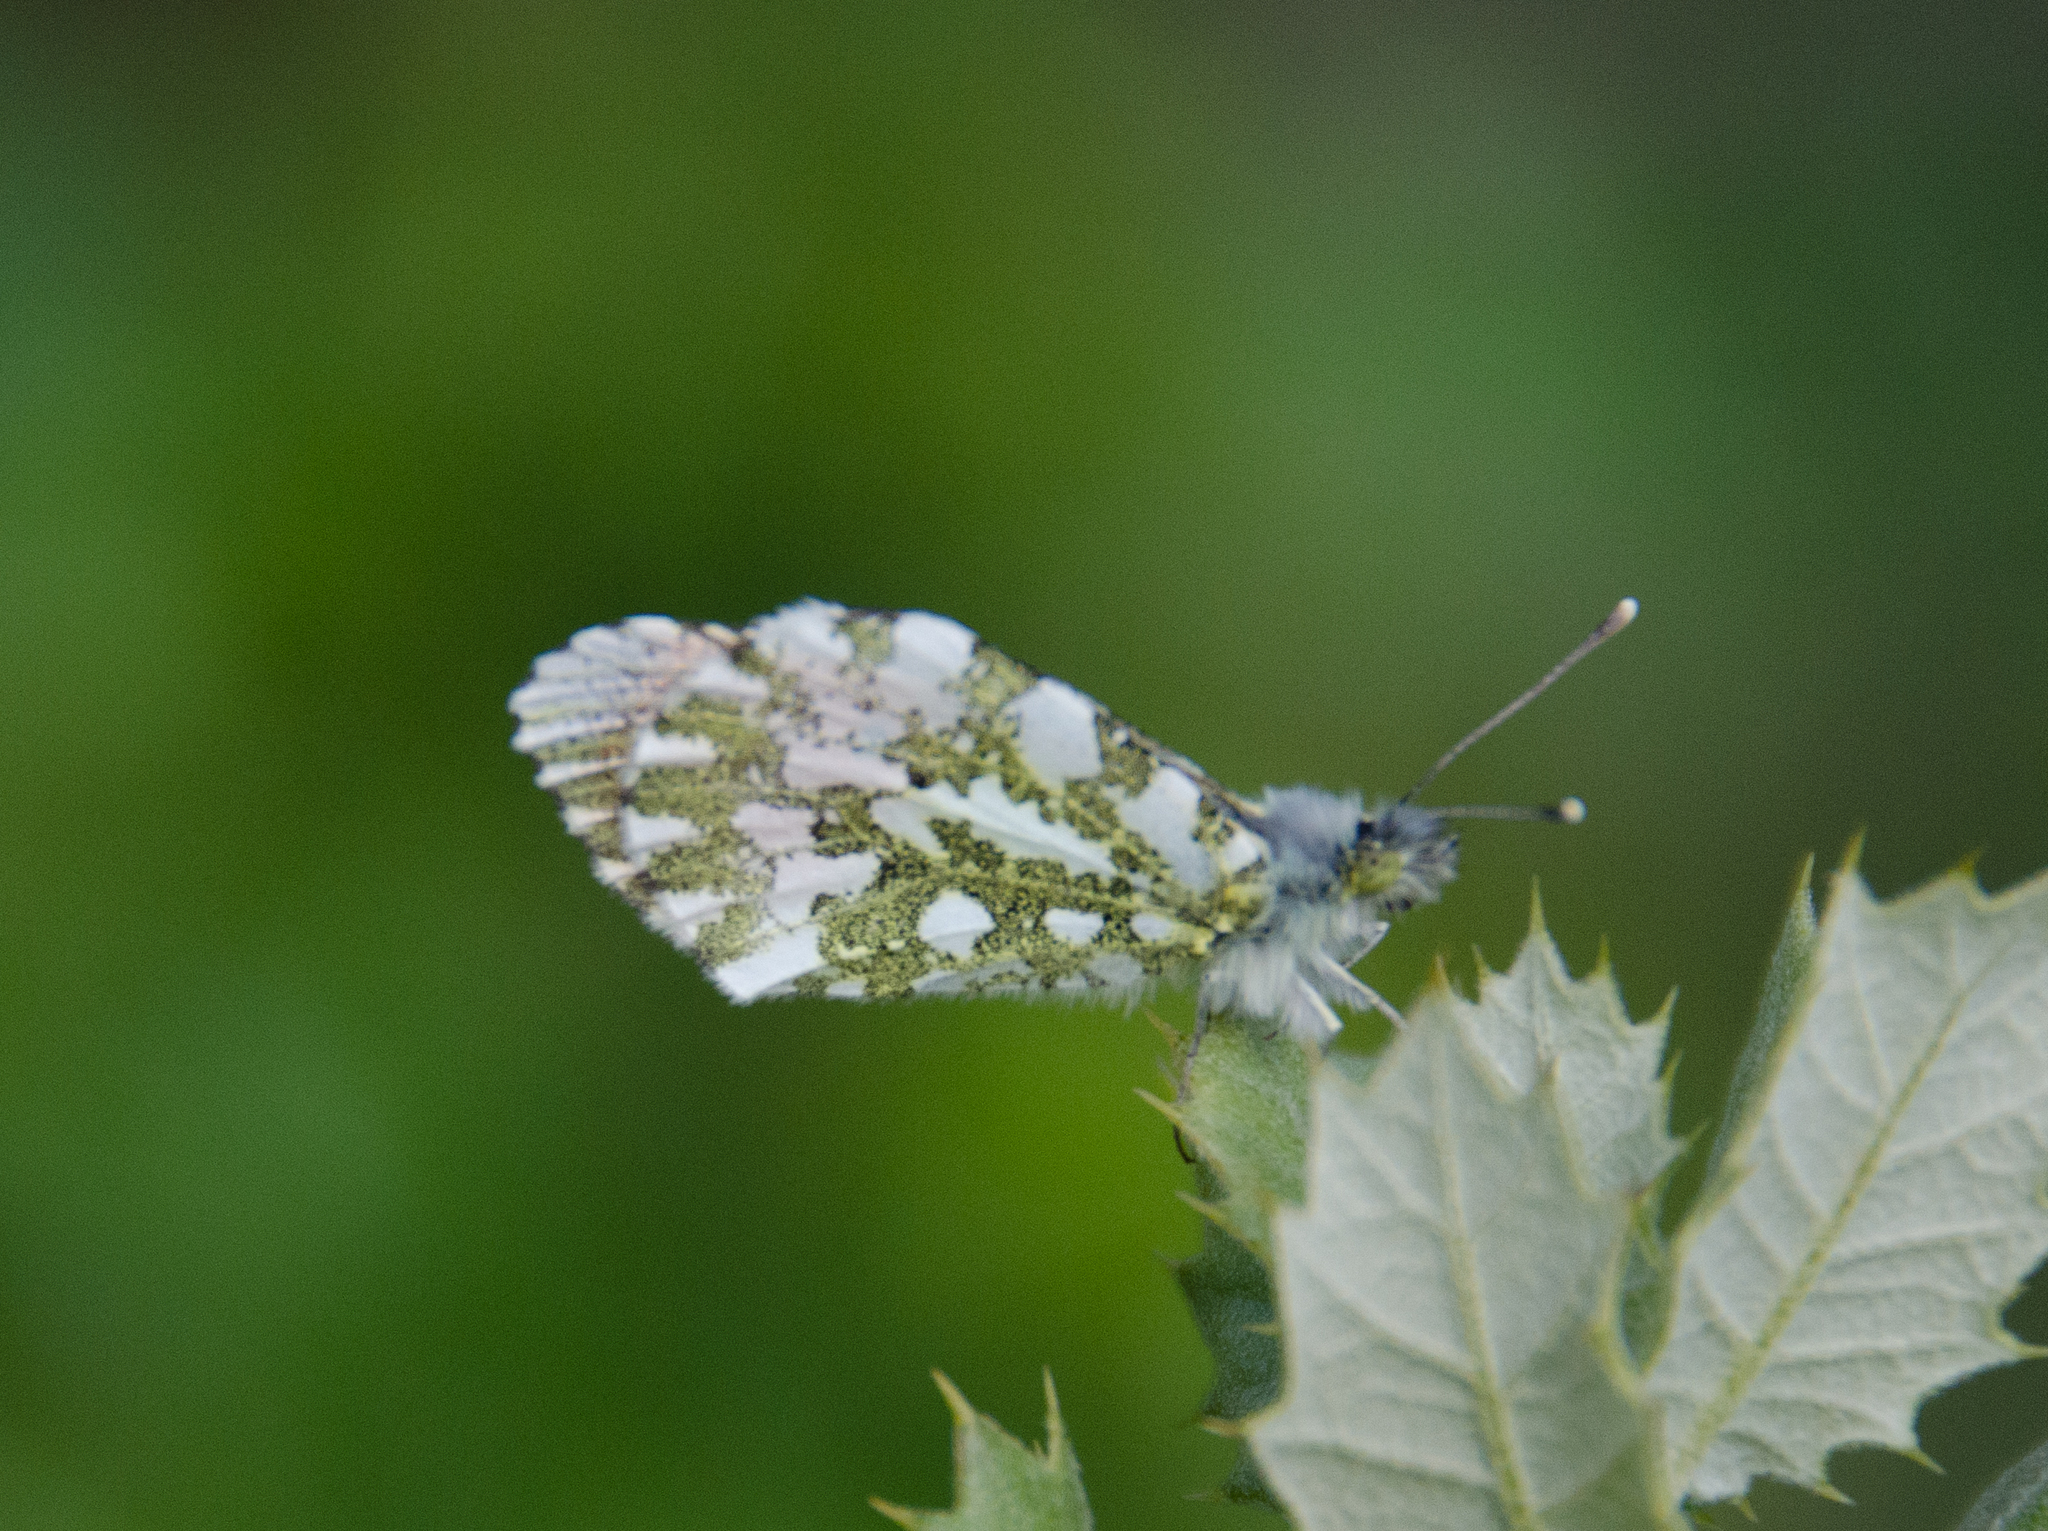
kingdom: Animalia
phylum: Arthropoda
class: Insecta
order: Lepidoptera
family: Pieridae
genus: Anthocharis
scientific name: Anthocharis cardamines
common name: Orange-tip
